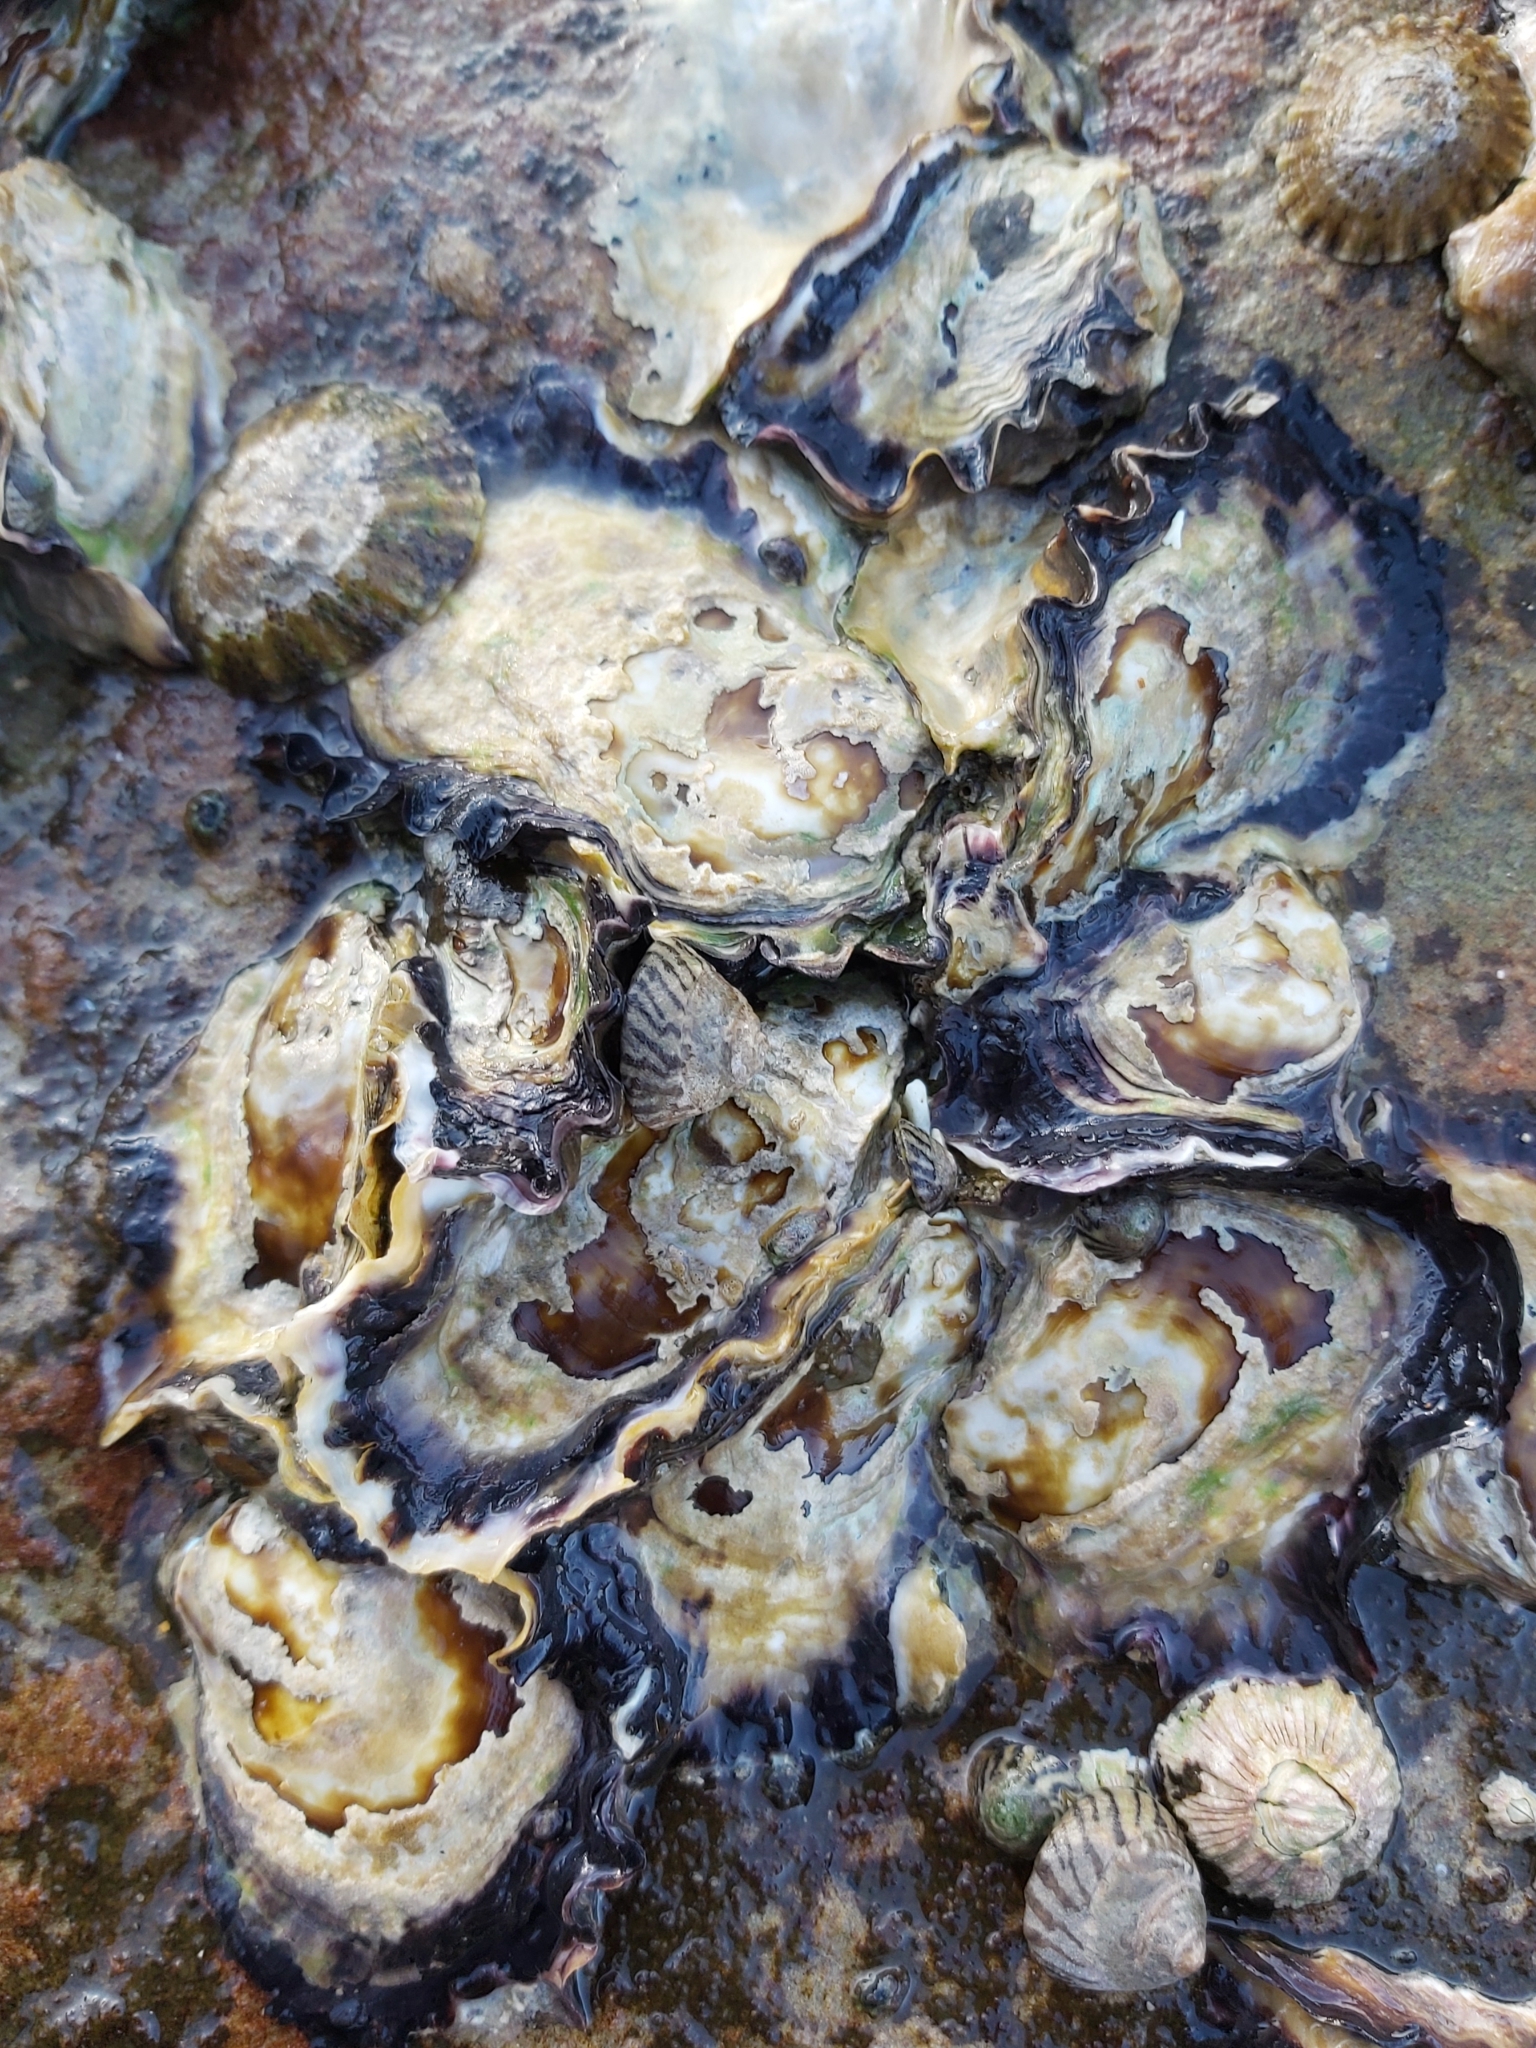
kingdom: Animalia
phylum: Mollusca
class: Bivalvia
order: Ostreida
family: Ostreidae
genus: Saccostrea
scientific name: Saccostrea glomerata
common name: Sydney cupped oyster
